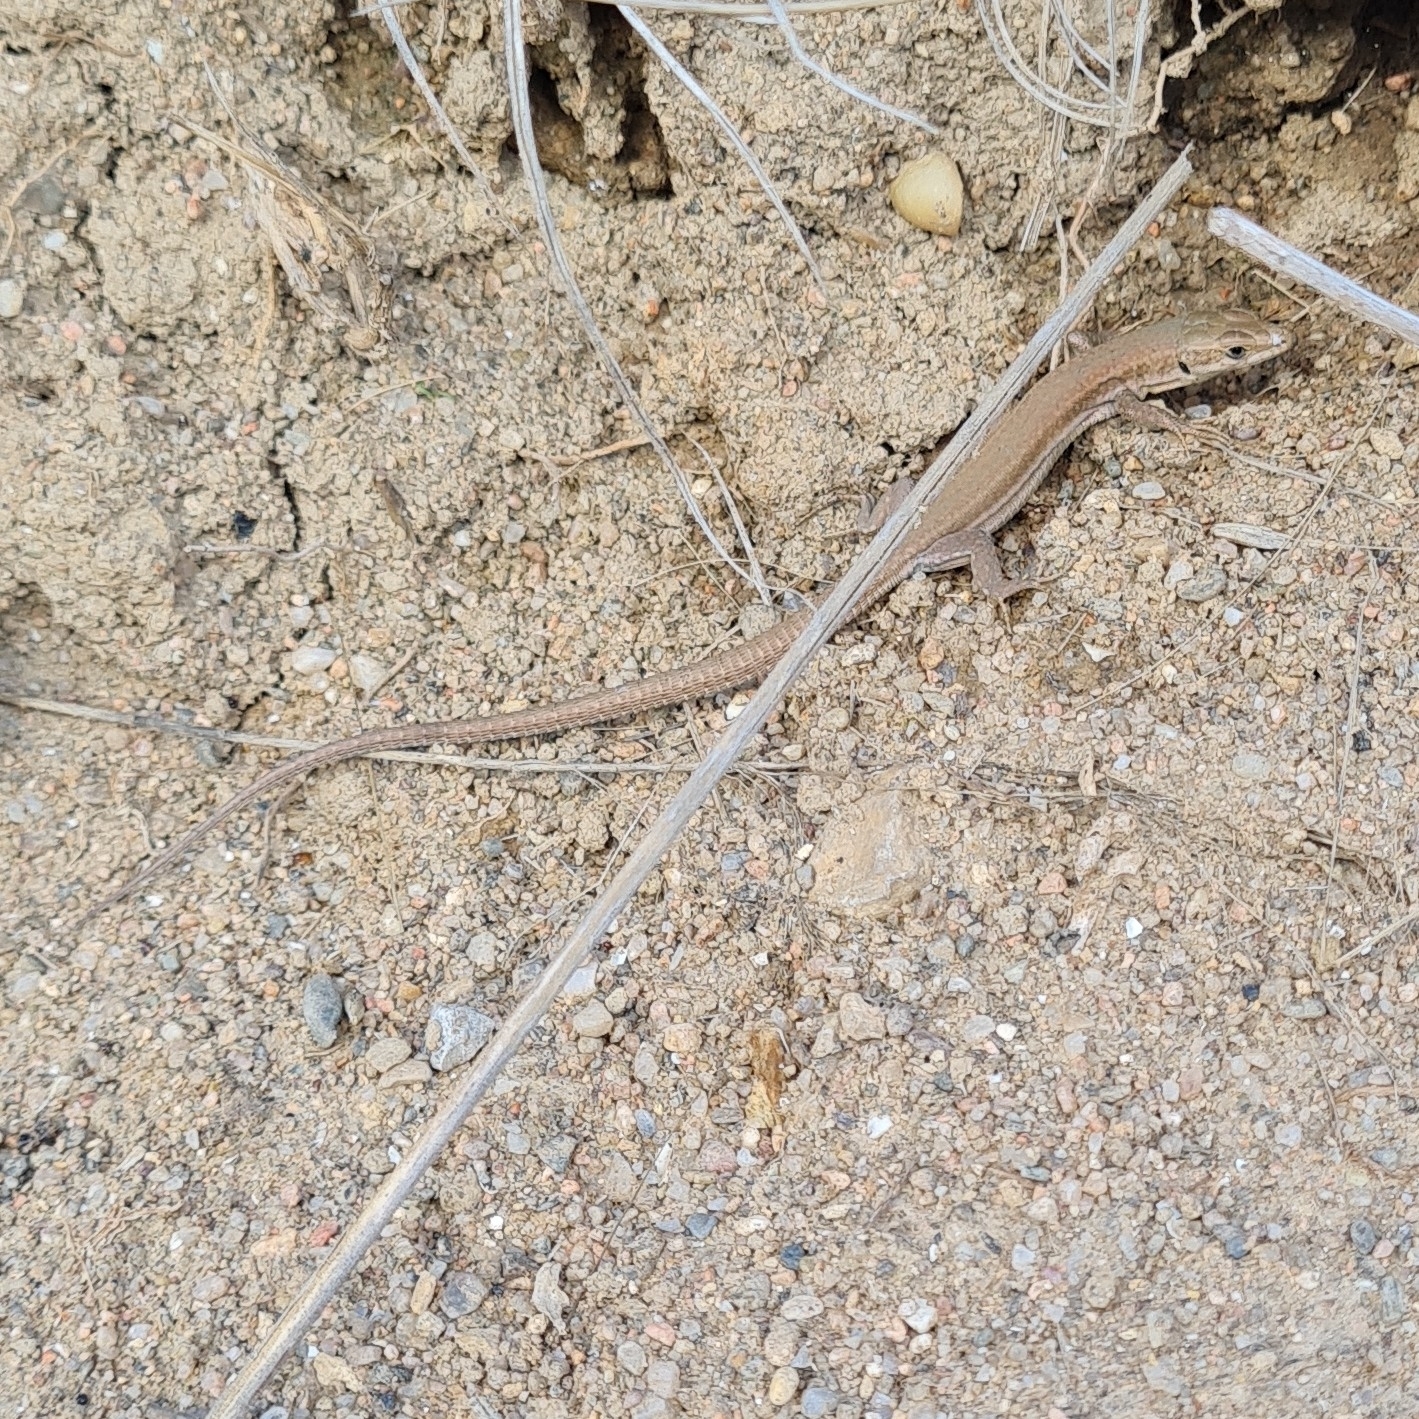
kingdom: Animalia
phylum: Chordata
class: Squamata
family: Lacertidae
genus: Podarcis
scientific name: Podarcis liolepis
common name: Catalonian wall lizard
